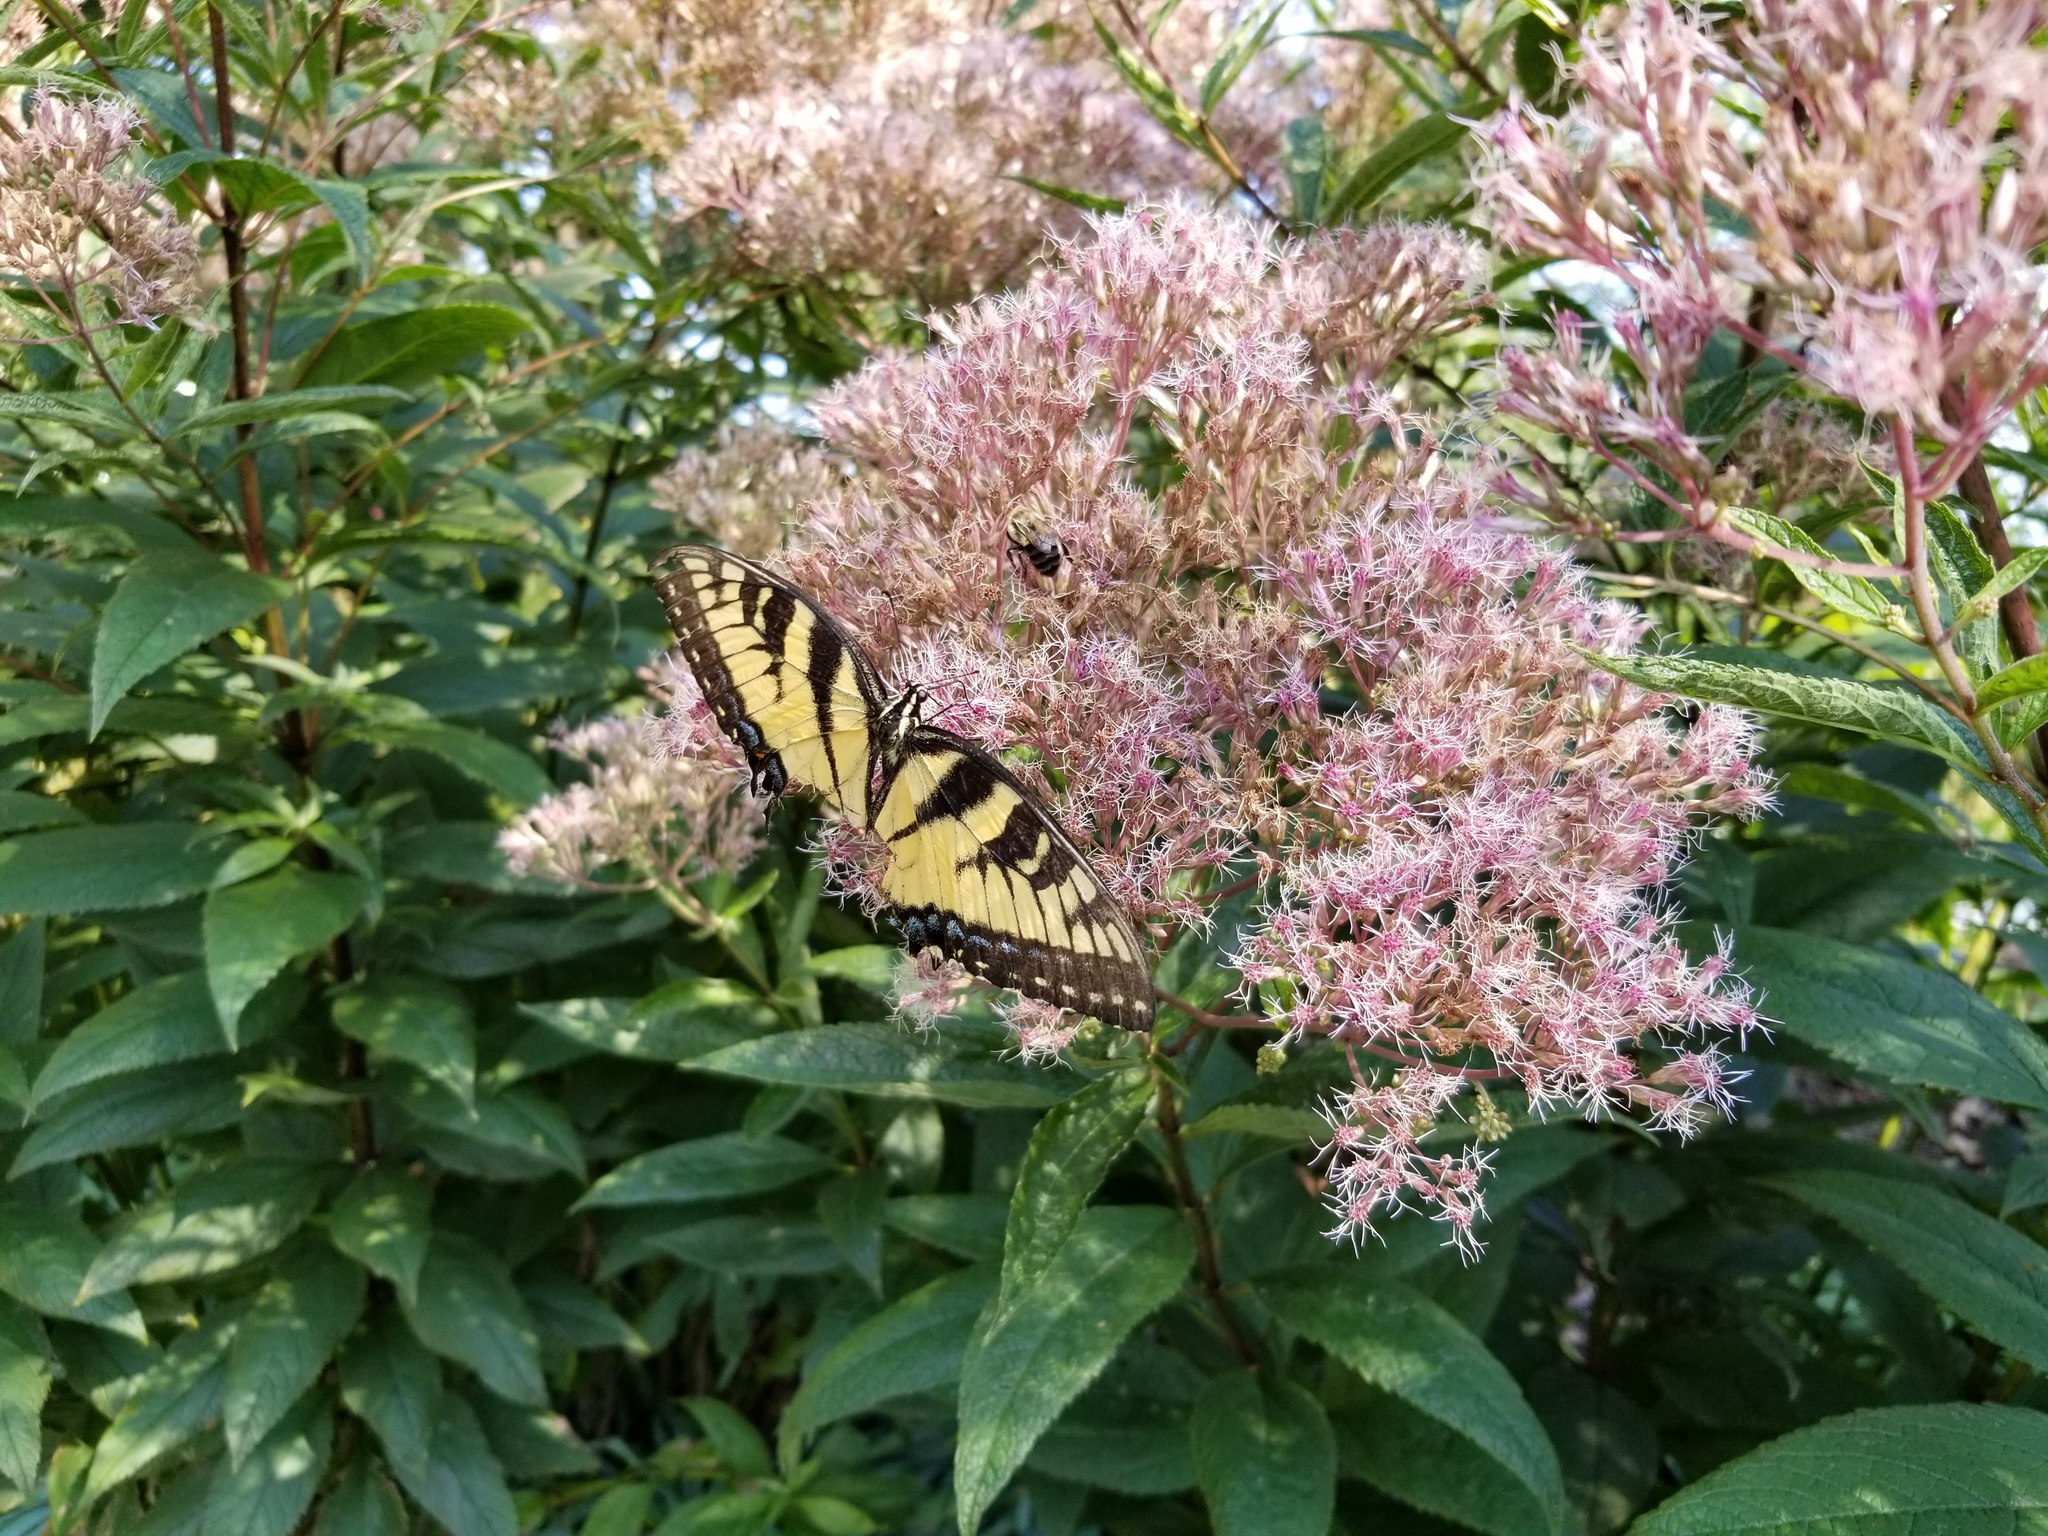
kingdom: Animalia
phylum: Arthropoda
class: Insecta
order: Lepidoptera
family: Papilionidae
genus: Papilio
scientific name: Papilio glaucus
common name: Tiger swallowtail
